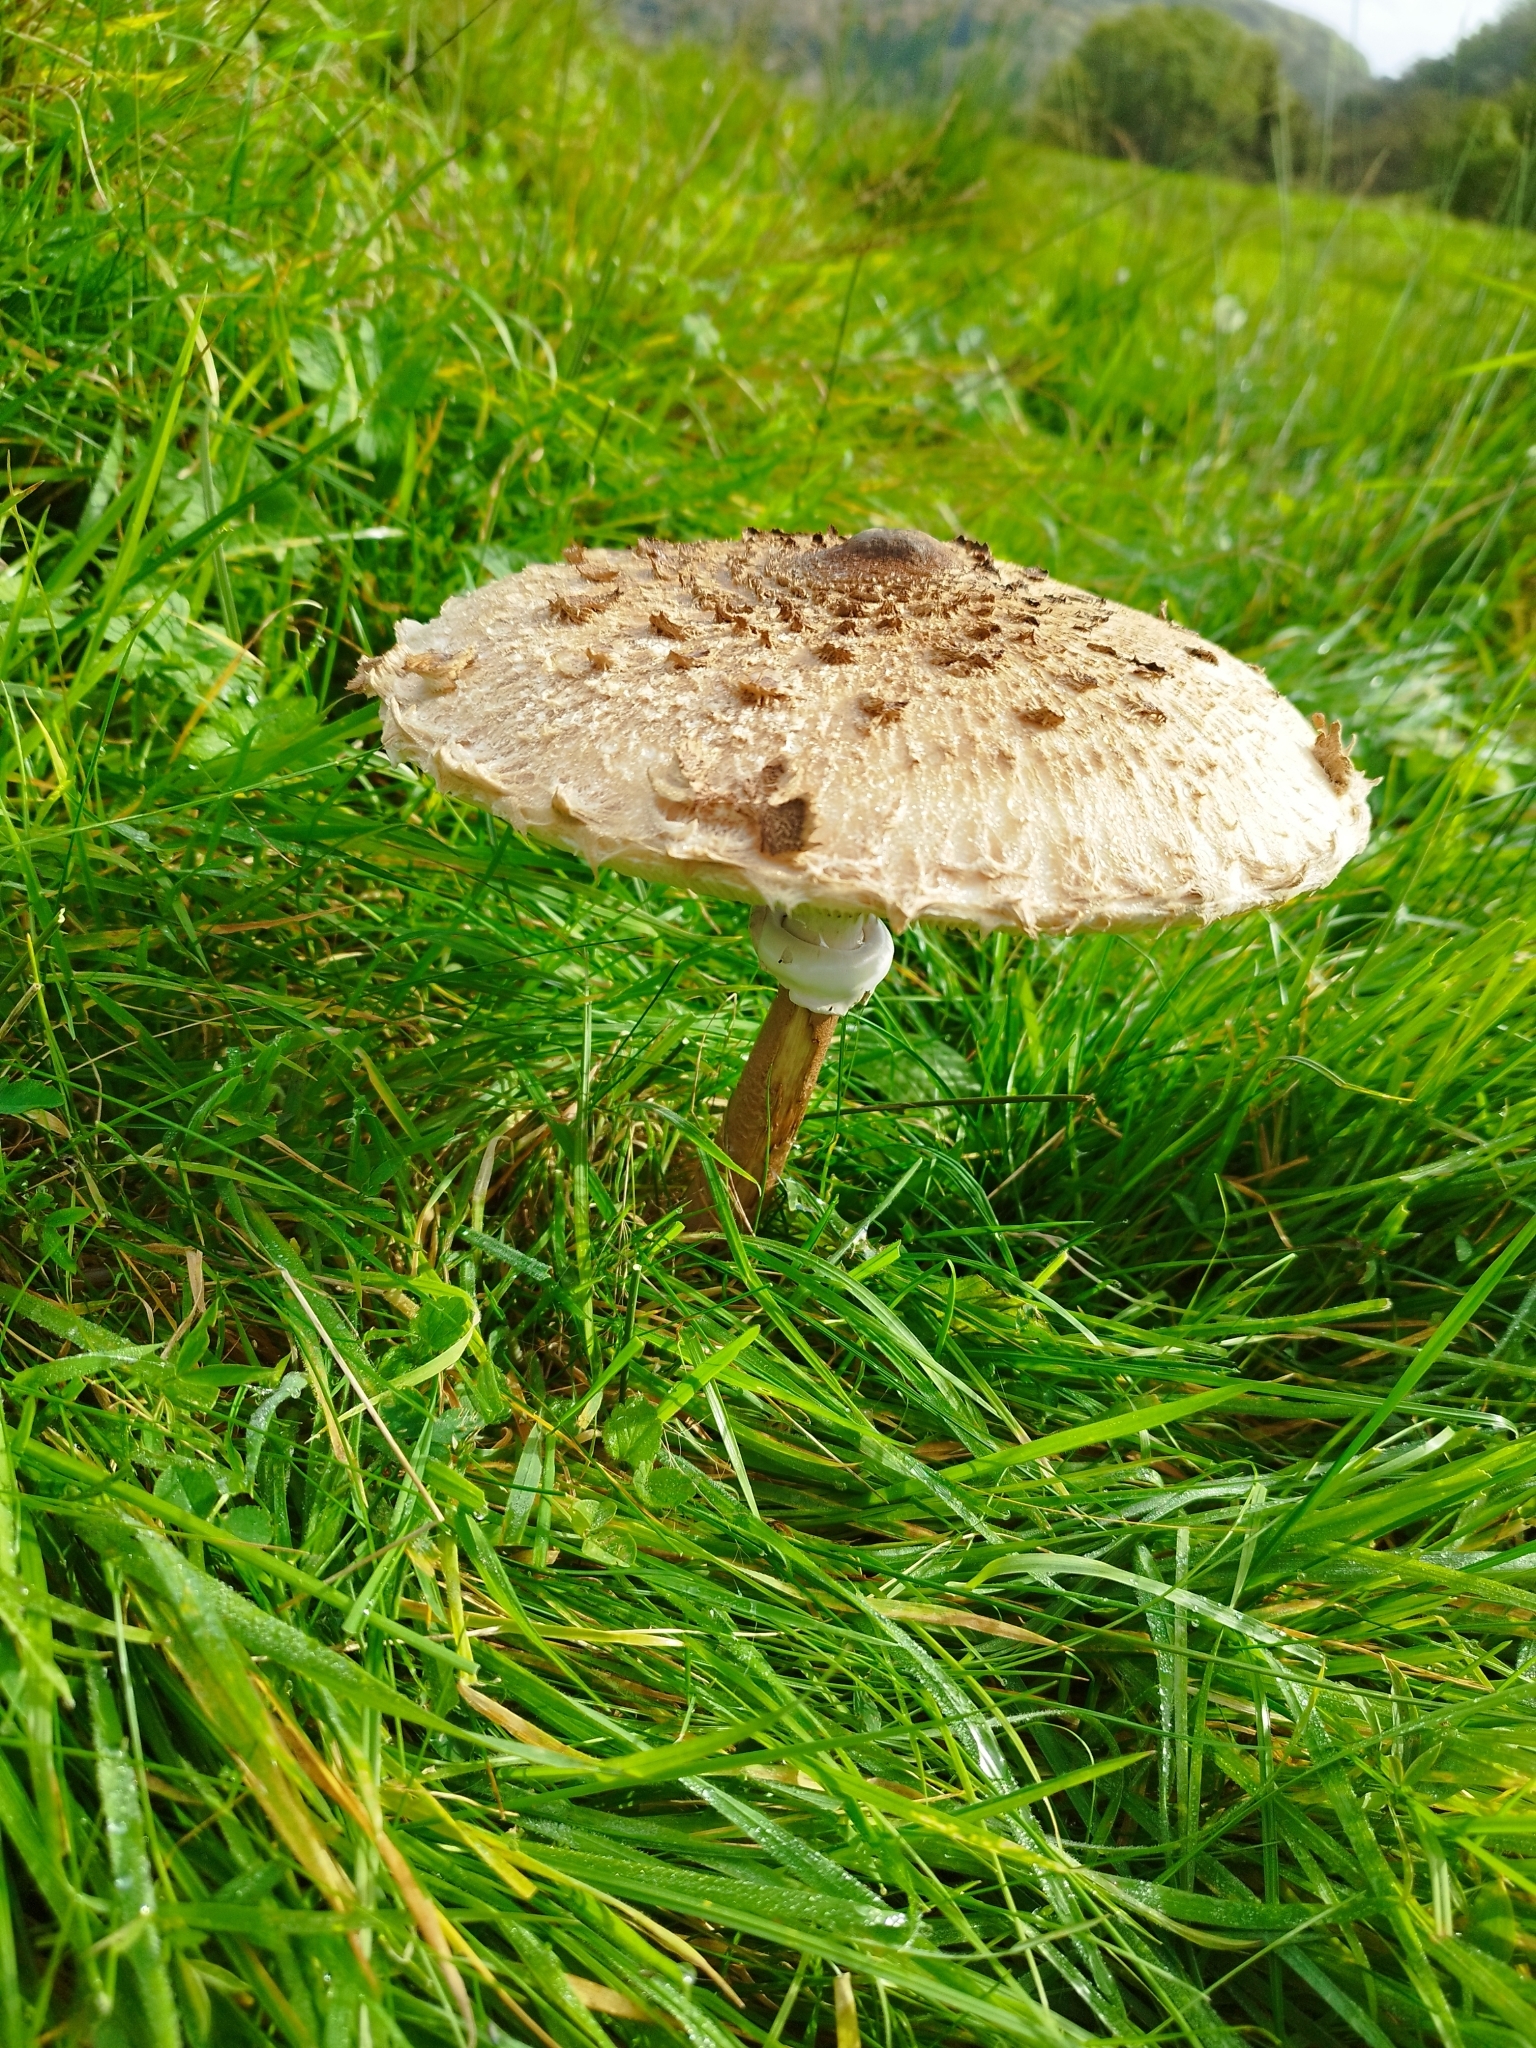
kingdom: Fungi
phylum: Basidiomycota
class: Agaricomycetes
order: Agaricales
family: Agaricaceae
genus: Macrolepiota
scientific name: Macrolepiota procera
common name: Parasol
